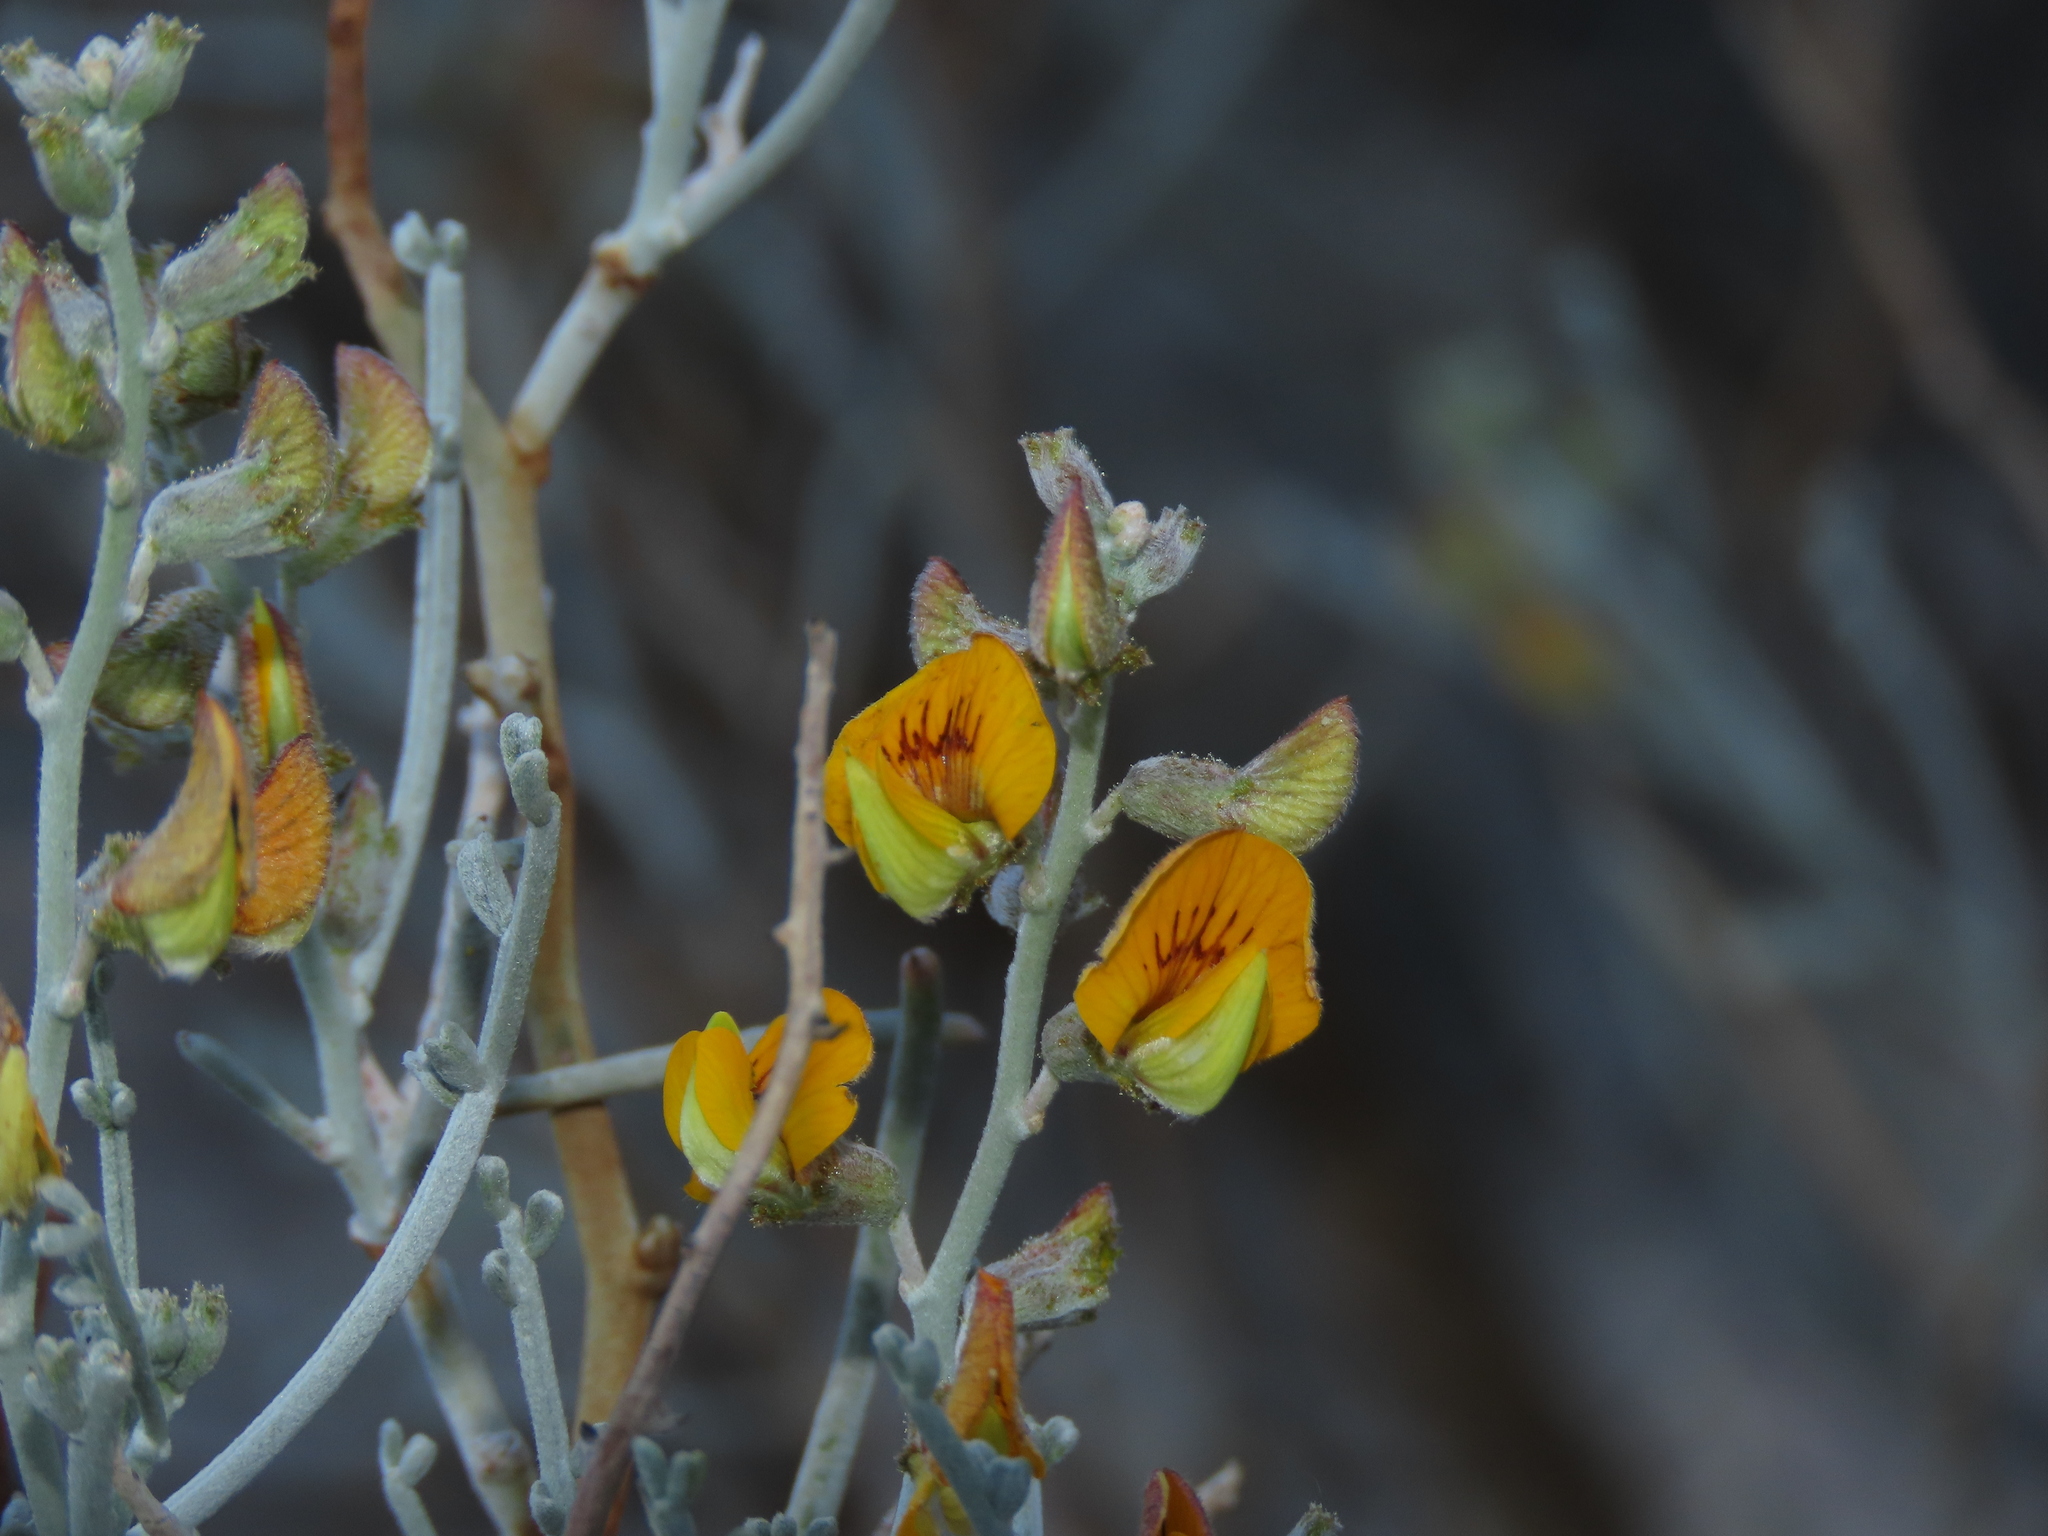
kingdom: Plantae
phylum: Tracheophyta
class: Magnoliopsida
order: Fabales
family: Fabaceae
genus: Adesmia
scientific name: Adesmia argentea
